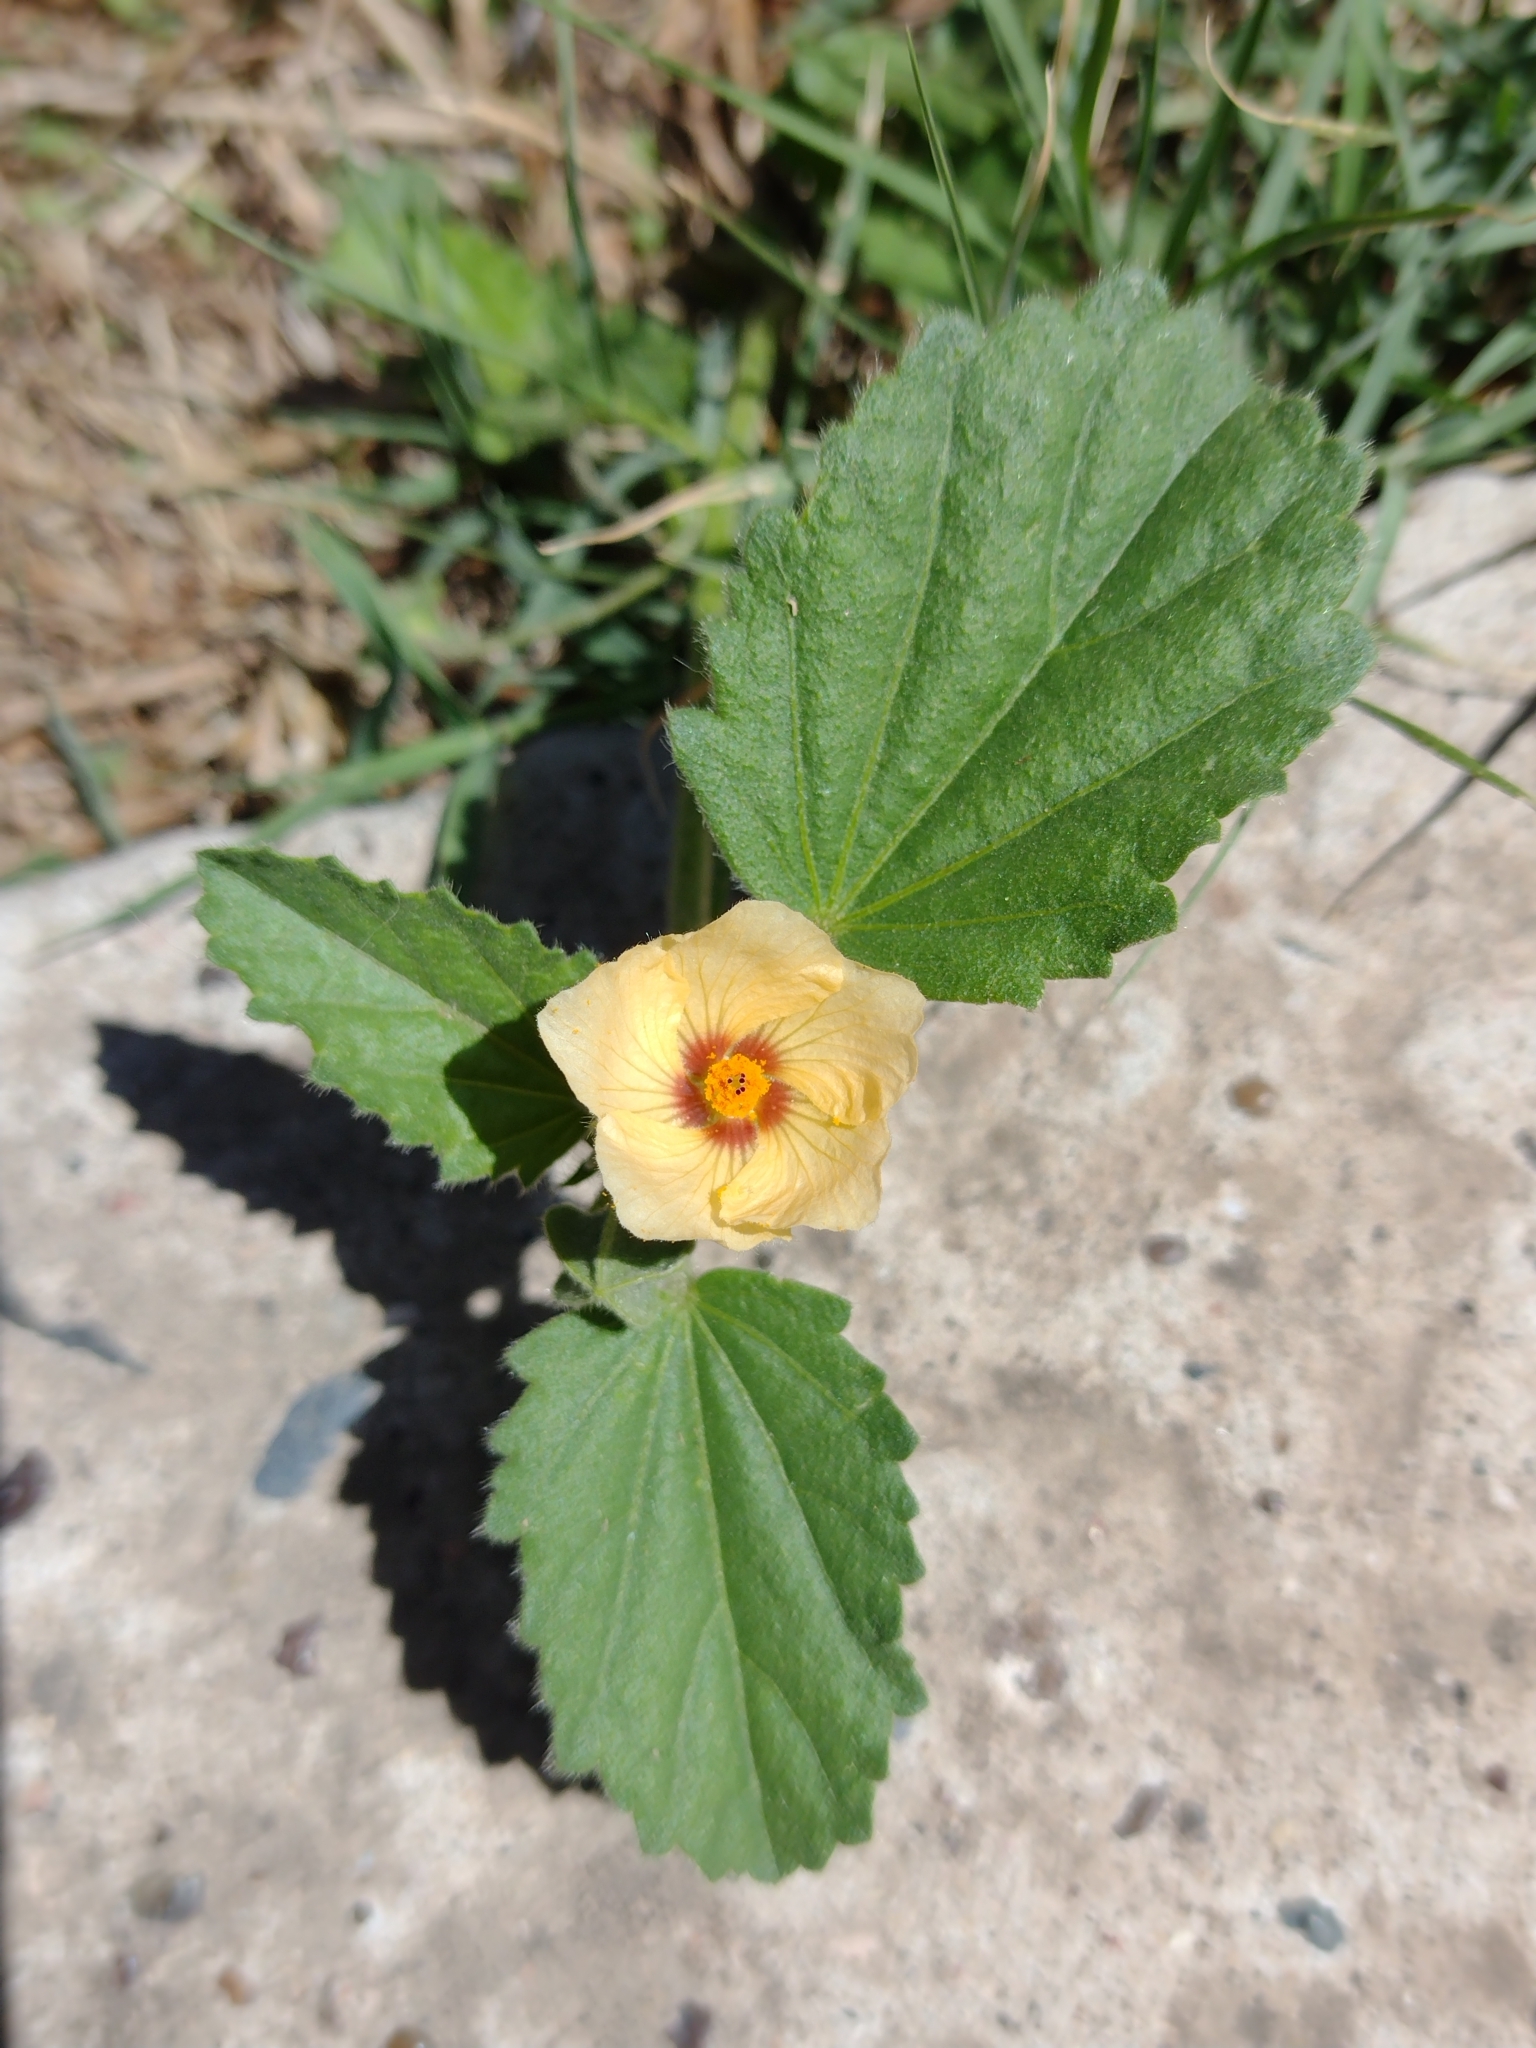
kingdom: Plantae
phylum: Tracheophyta
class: Magnoliopsida
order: Malvales
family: Malvaceae
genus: Rhynchosida
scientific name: Rhynchosida physocalyx
